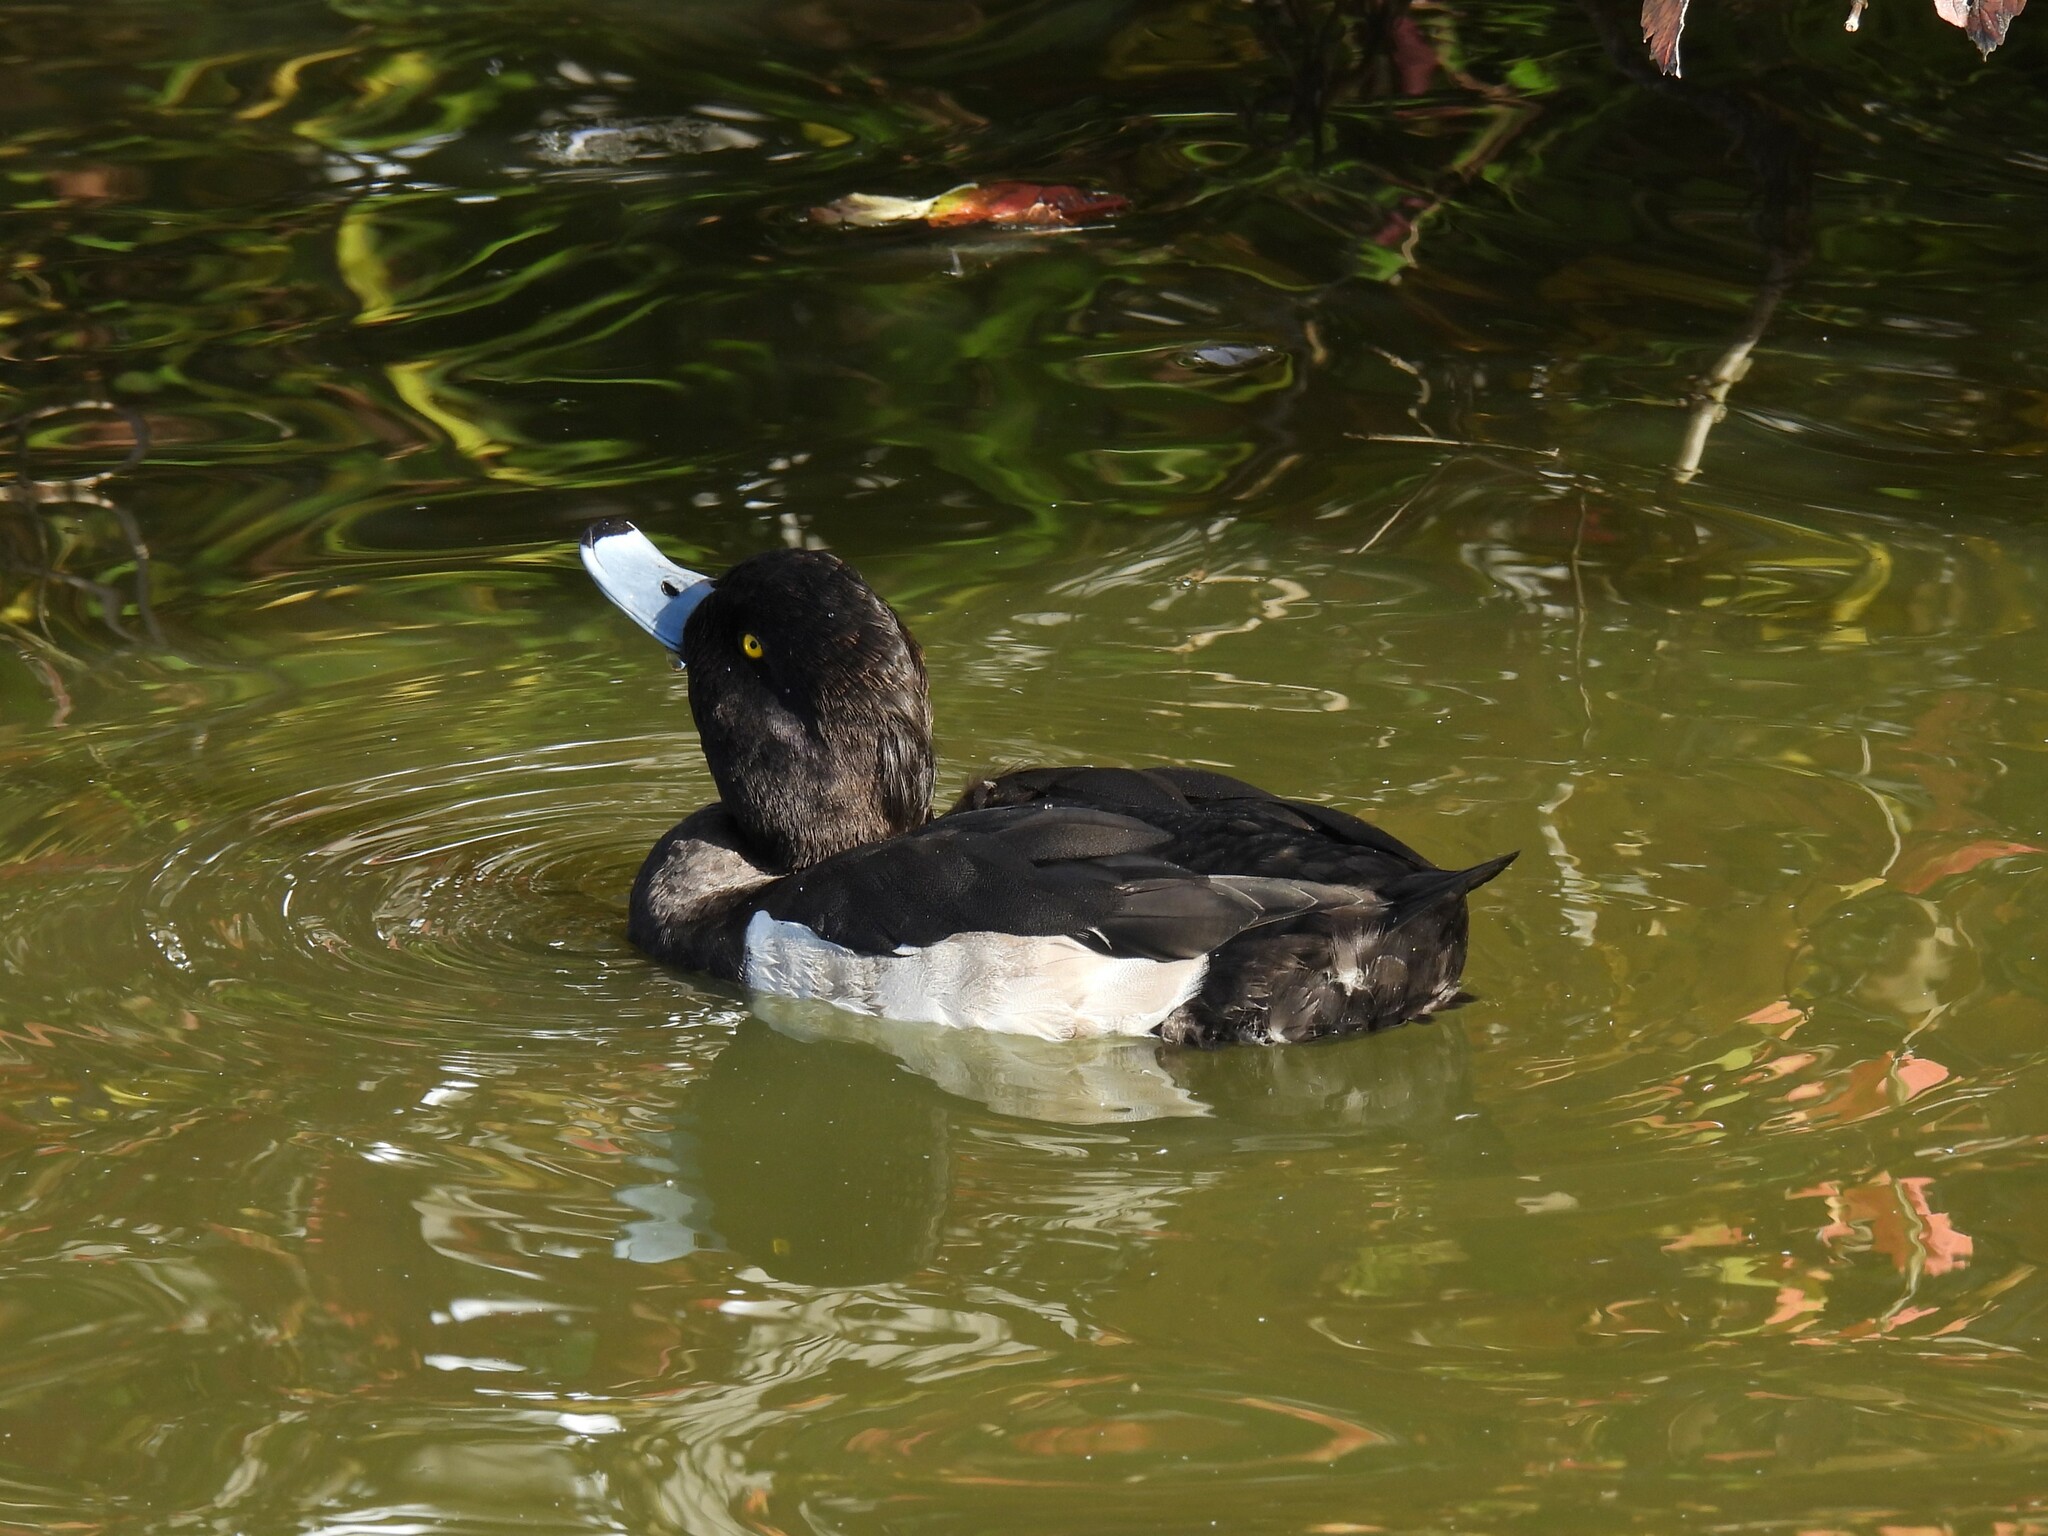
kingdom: Animalia
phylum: Chordata
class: Aves
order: Anseriformes
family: Anatidae
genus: Aythya
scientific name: Aythya fuligula
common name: Tufted duck
